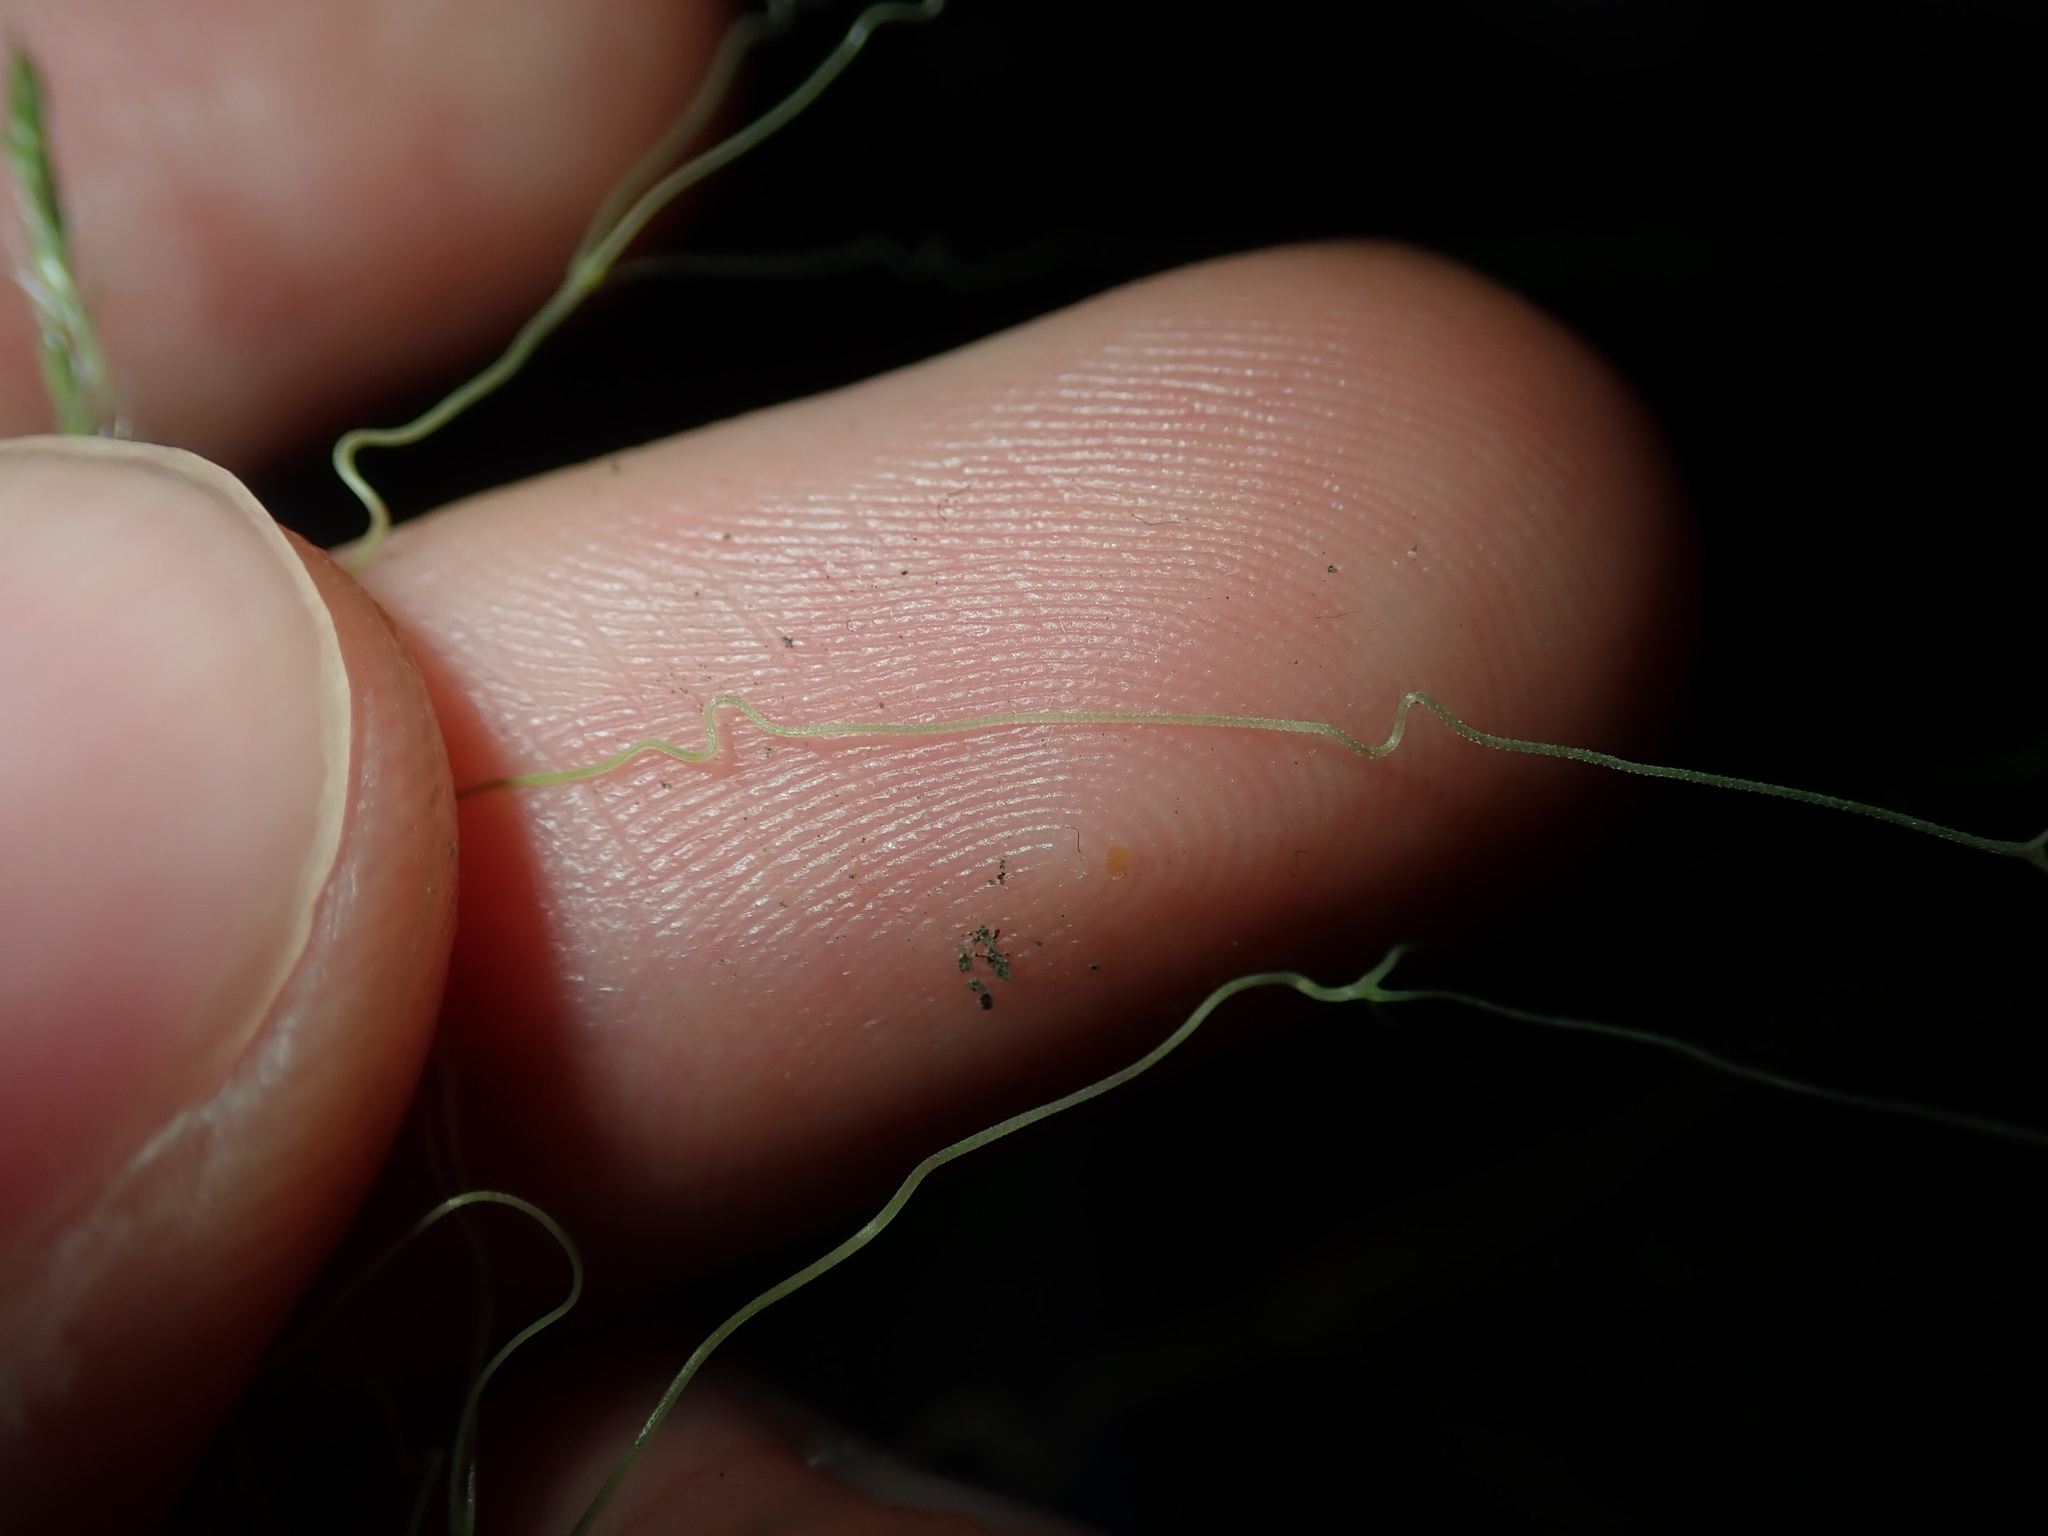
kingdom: Plantae
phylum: Tracheophyta
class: Liliopsida
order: Poales
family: Poaceae
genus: Lachnagrostis
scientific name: Lachnagrostis filiformis
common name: Bentgrass
